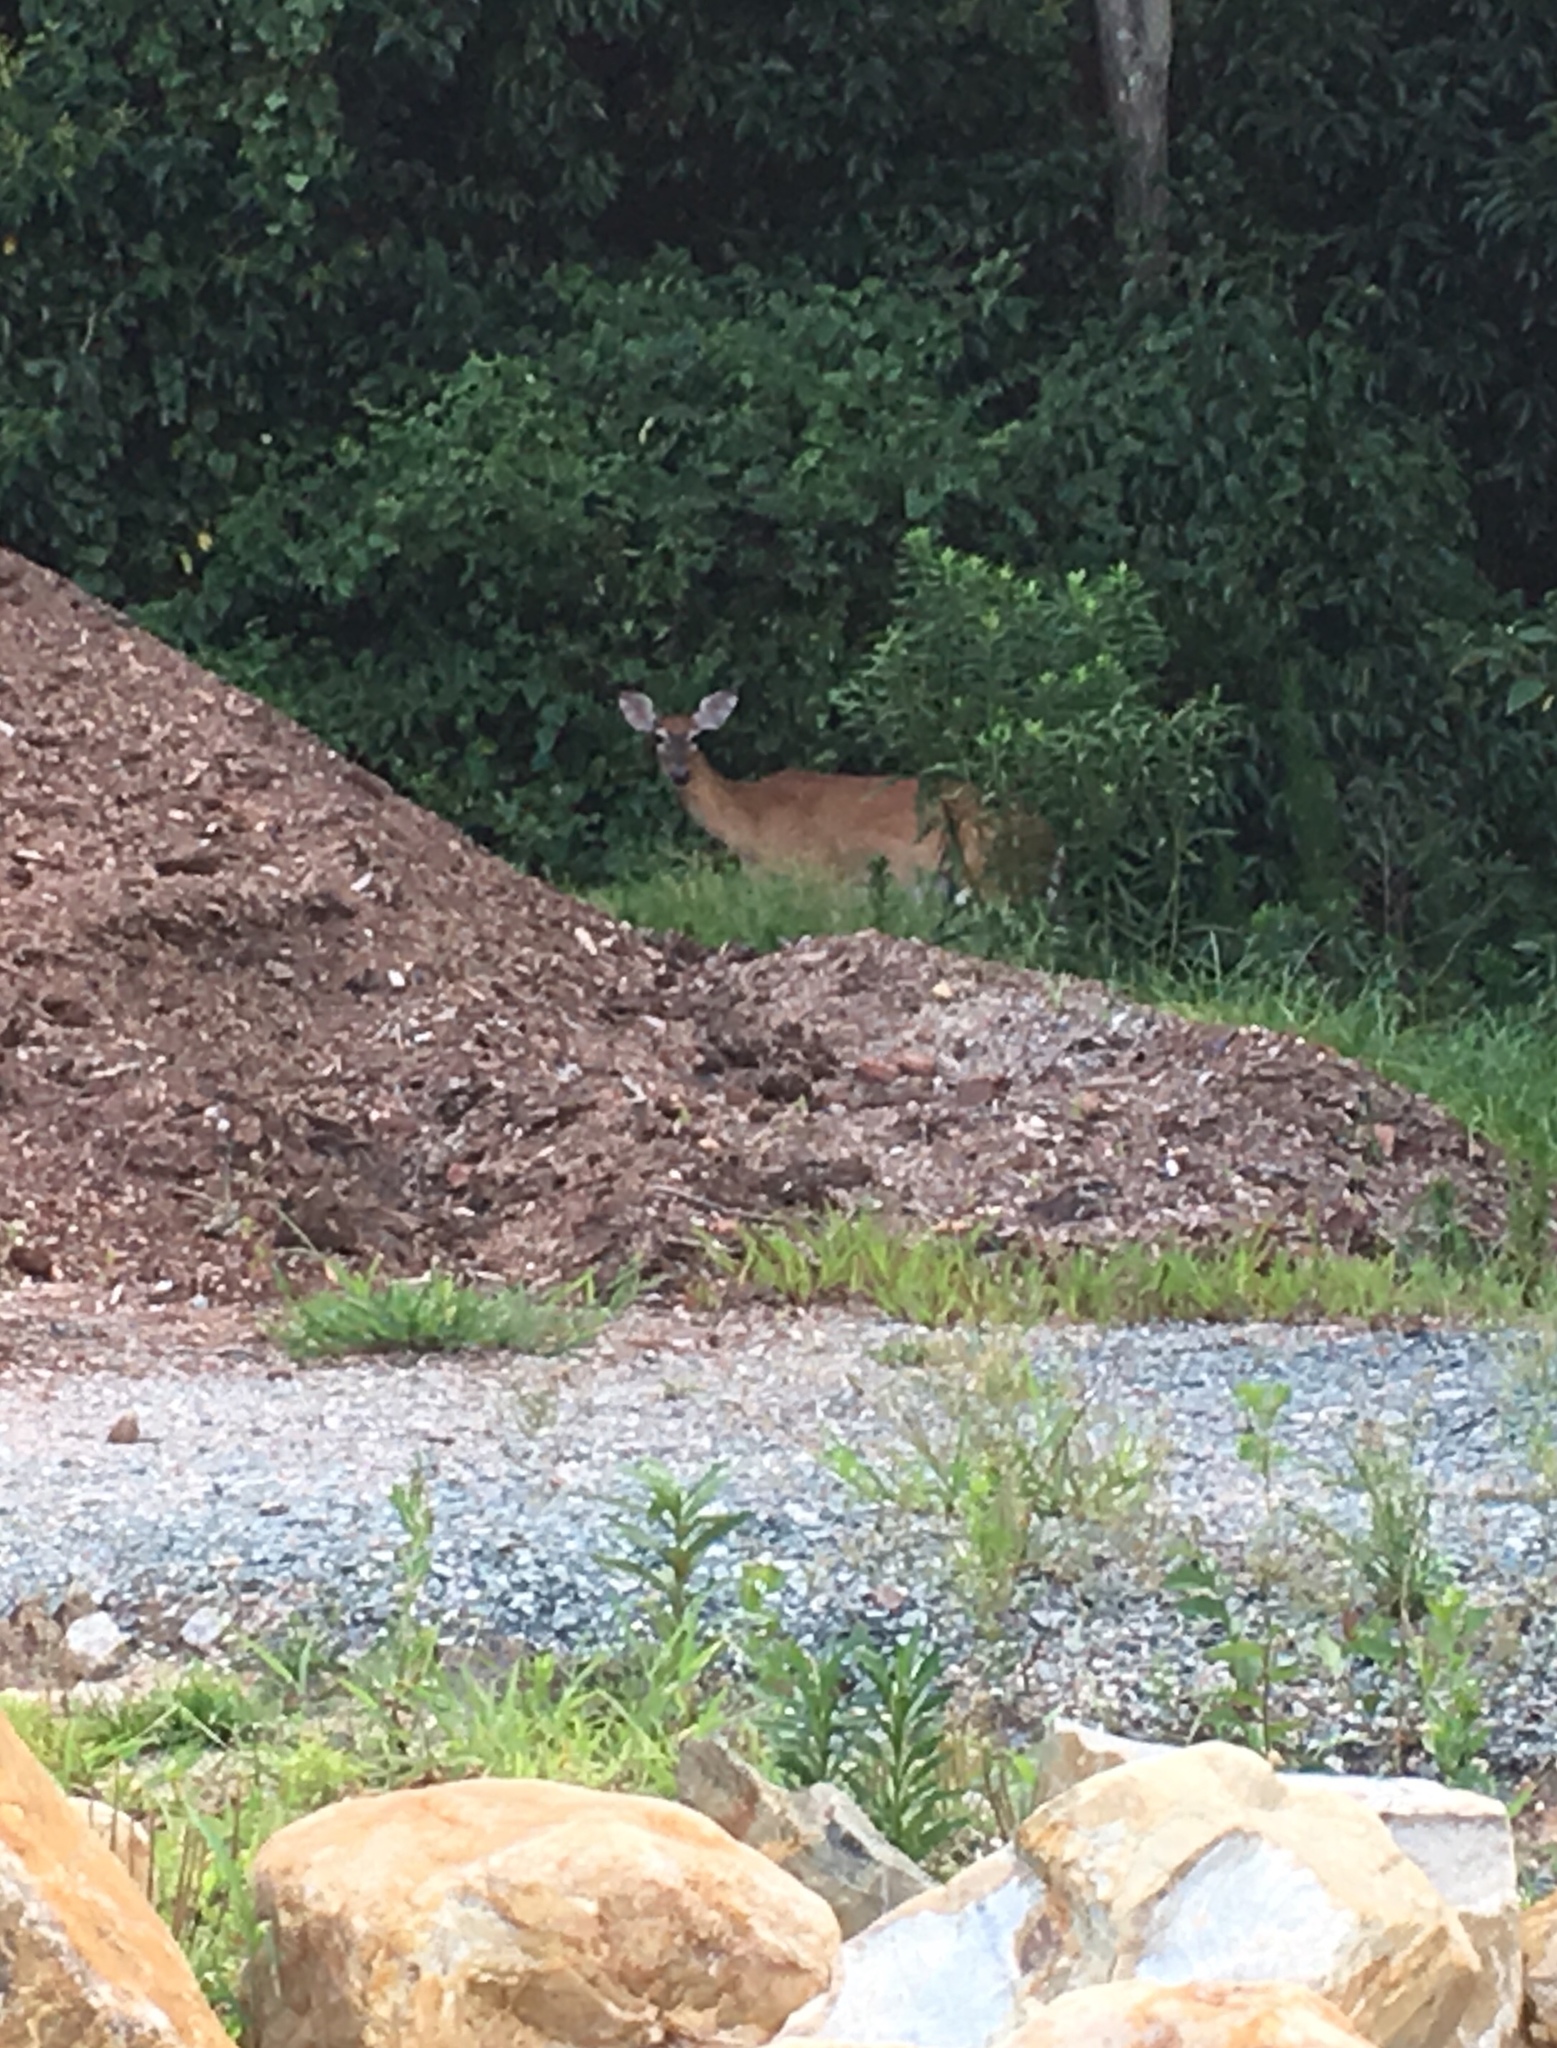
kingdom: Animalia
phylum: Chordata
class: Mammalia
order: Artiodactyla
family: Cervidae
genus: Odocoileus
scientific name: Odocoileus virginianus
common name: White-tailed deer
